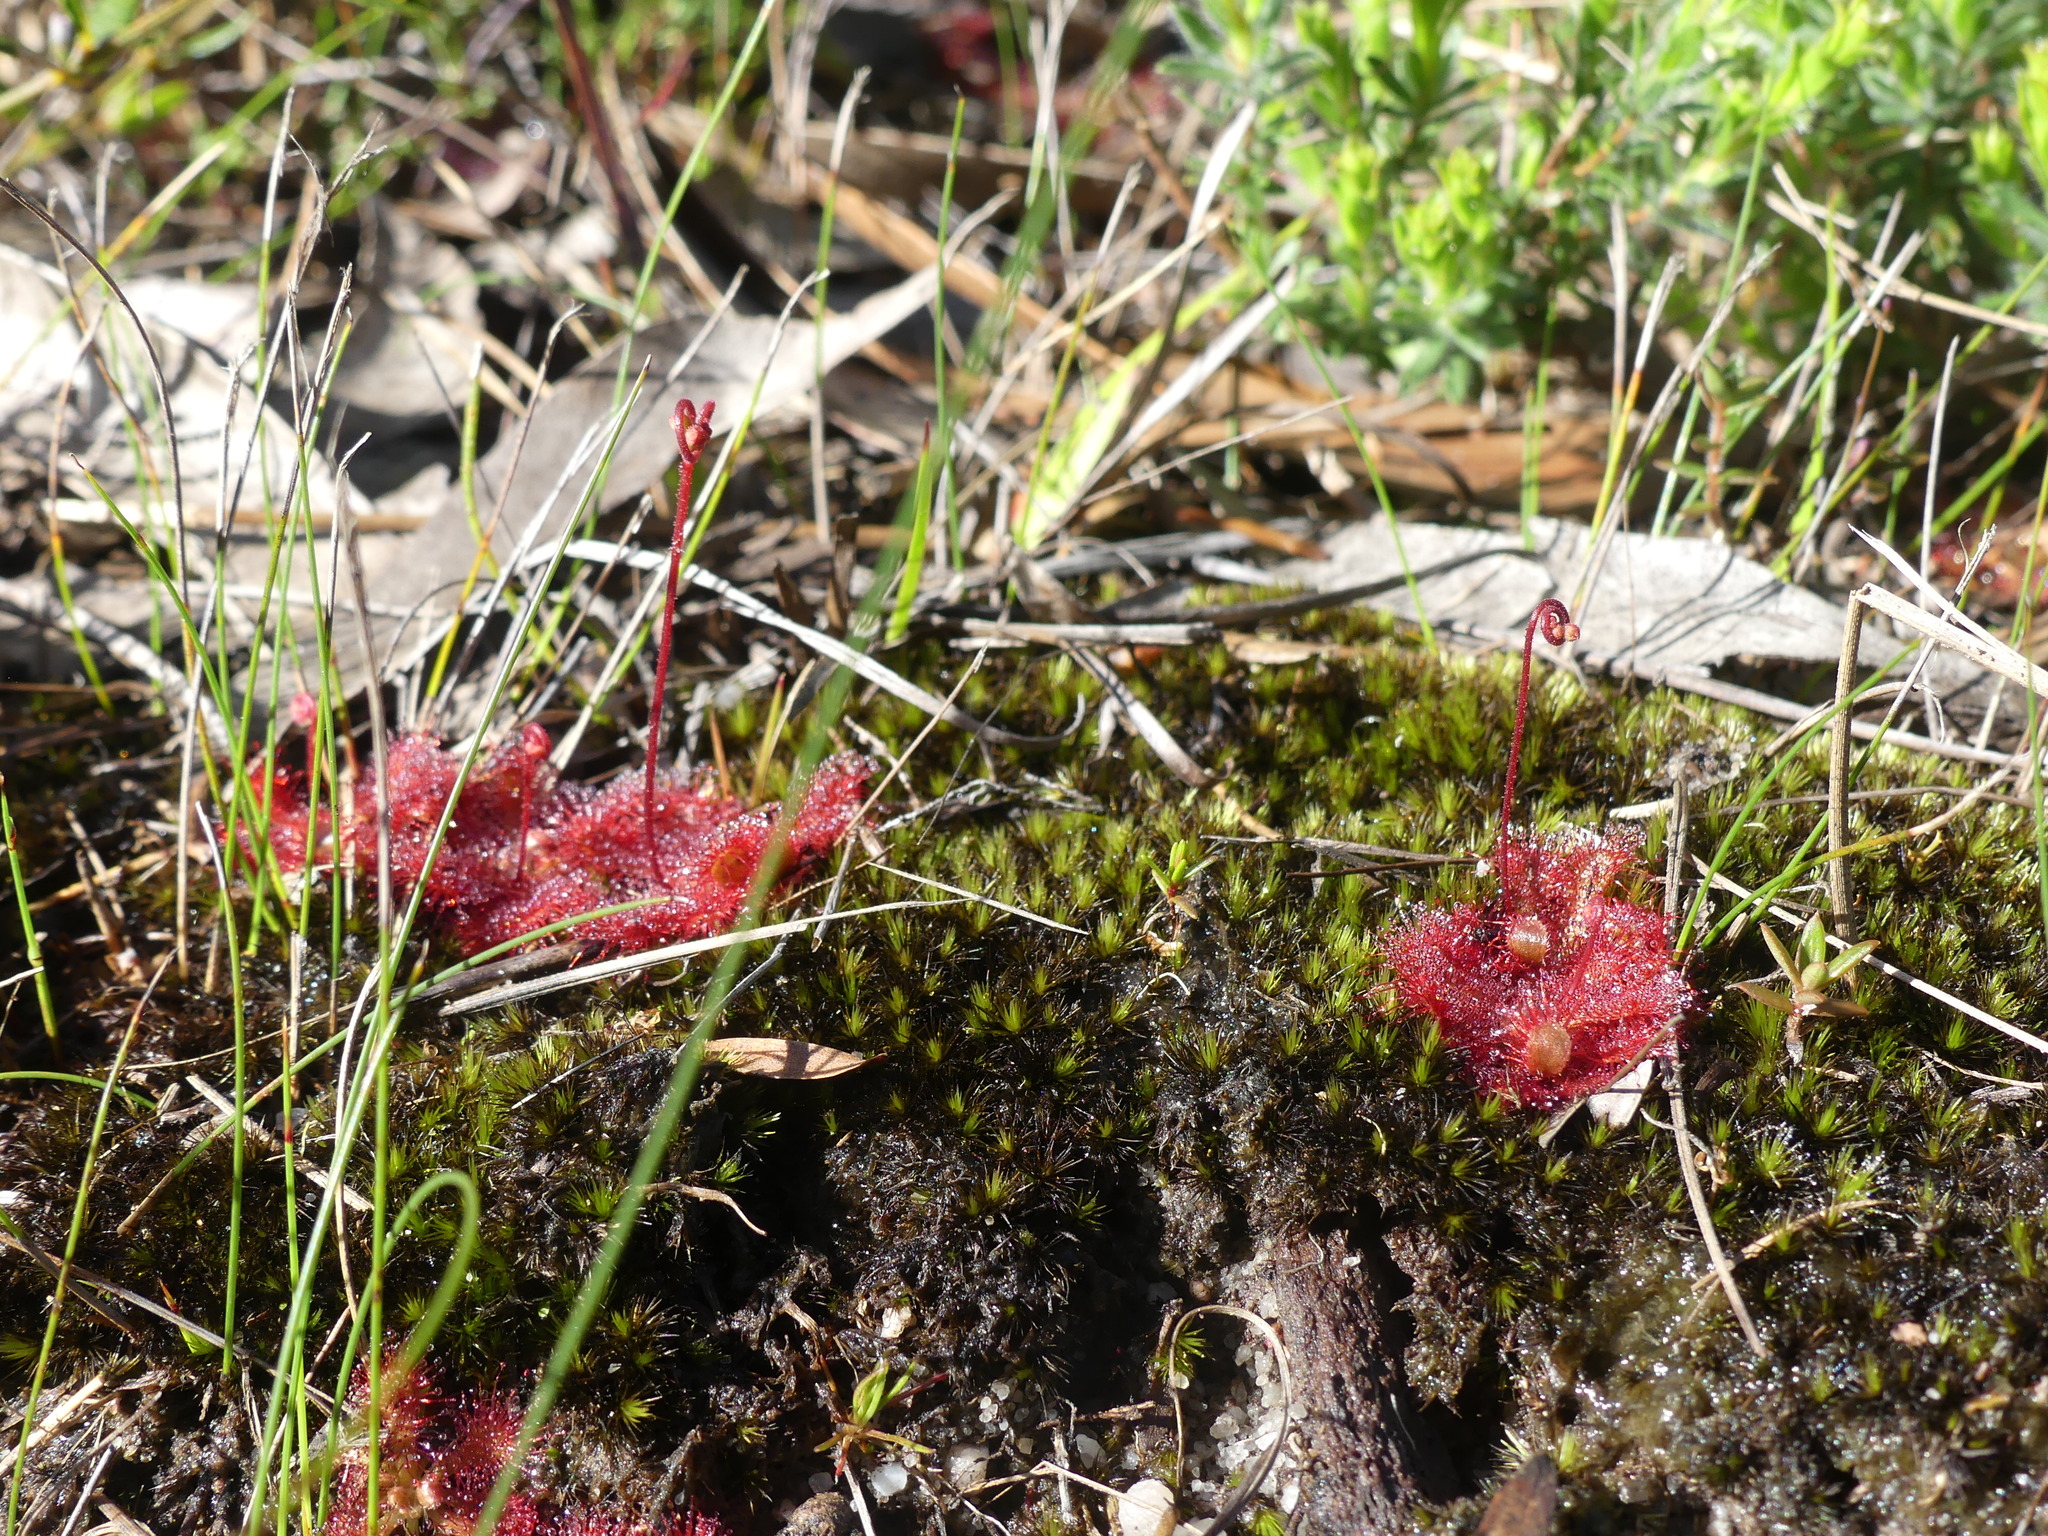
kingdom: Plantae
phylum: Tracheophyta
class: Magnoliopsida
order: Caryophyllales
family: Droseraceae
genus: Drosera
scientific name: Drosera spatulata
